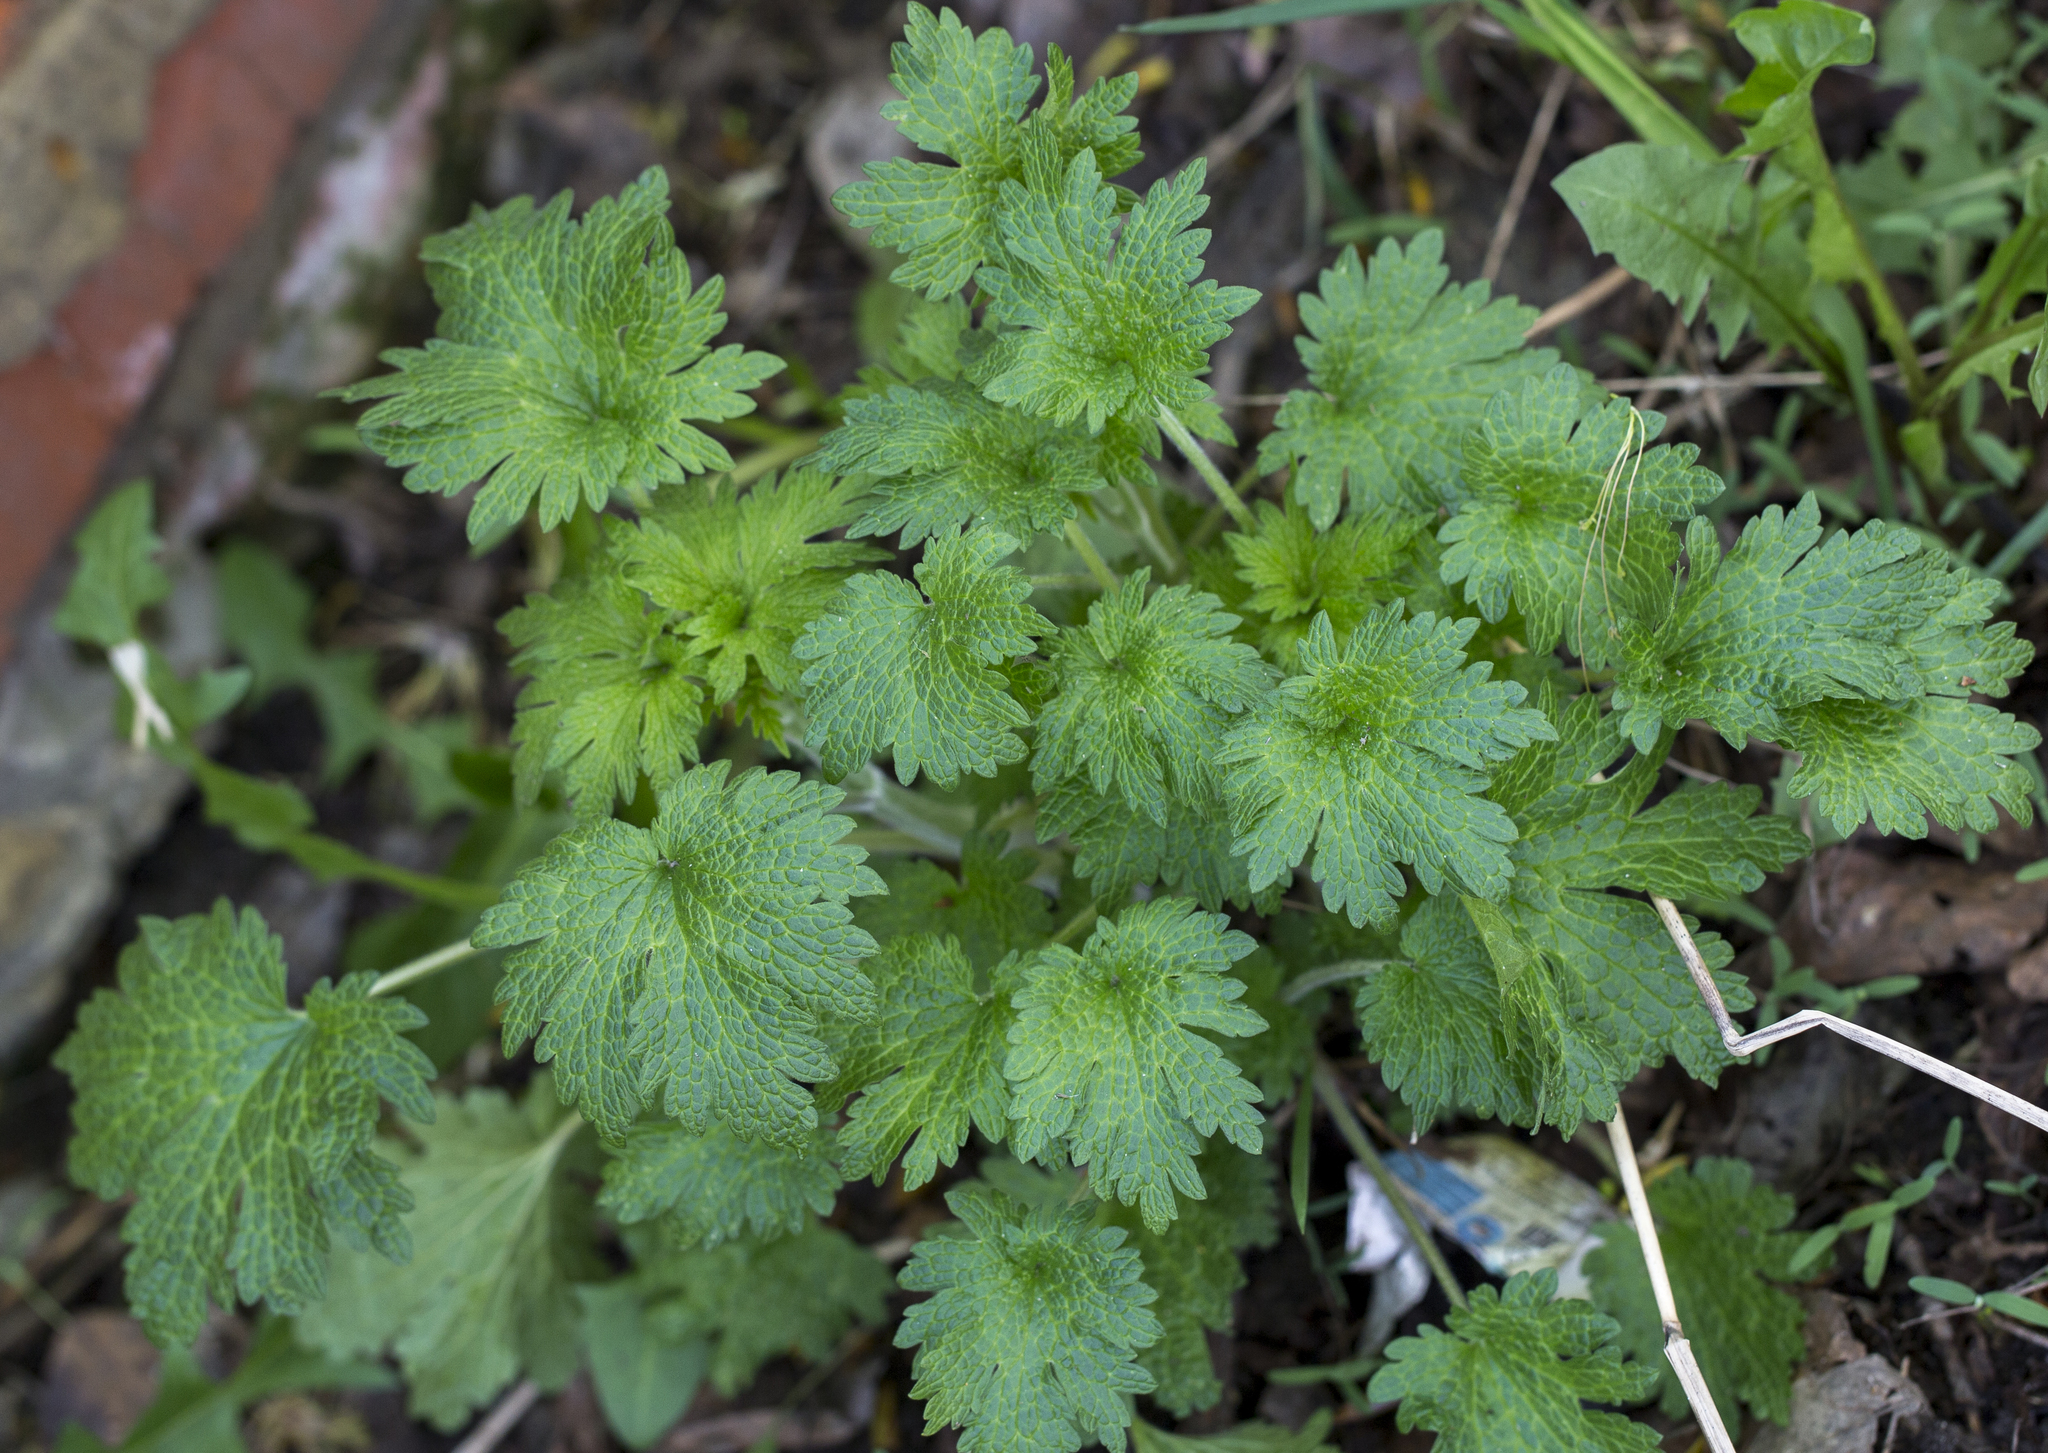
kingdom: Plantae
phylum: Tracheophyta
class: Magnoliopsida
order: Lamiales
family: Lamiaceae
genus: Leonurus
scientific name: Leonurus quinquelobatus
